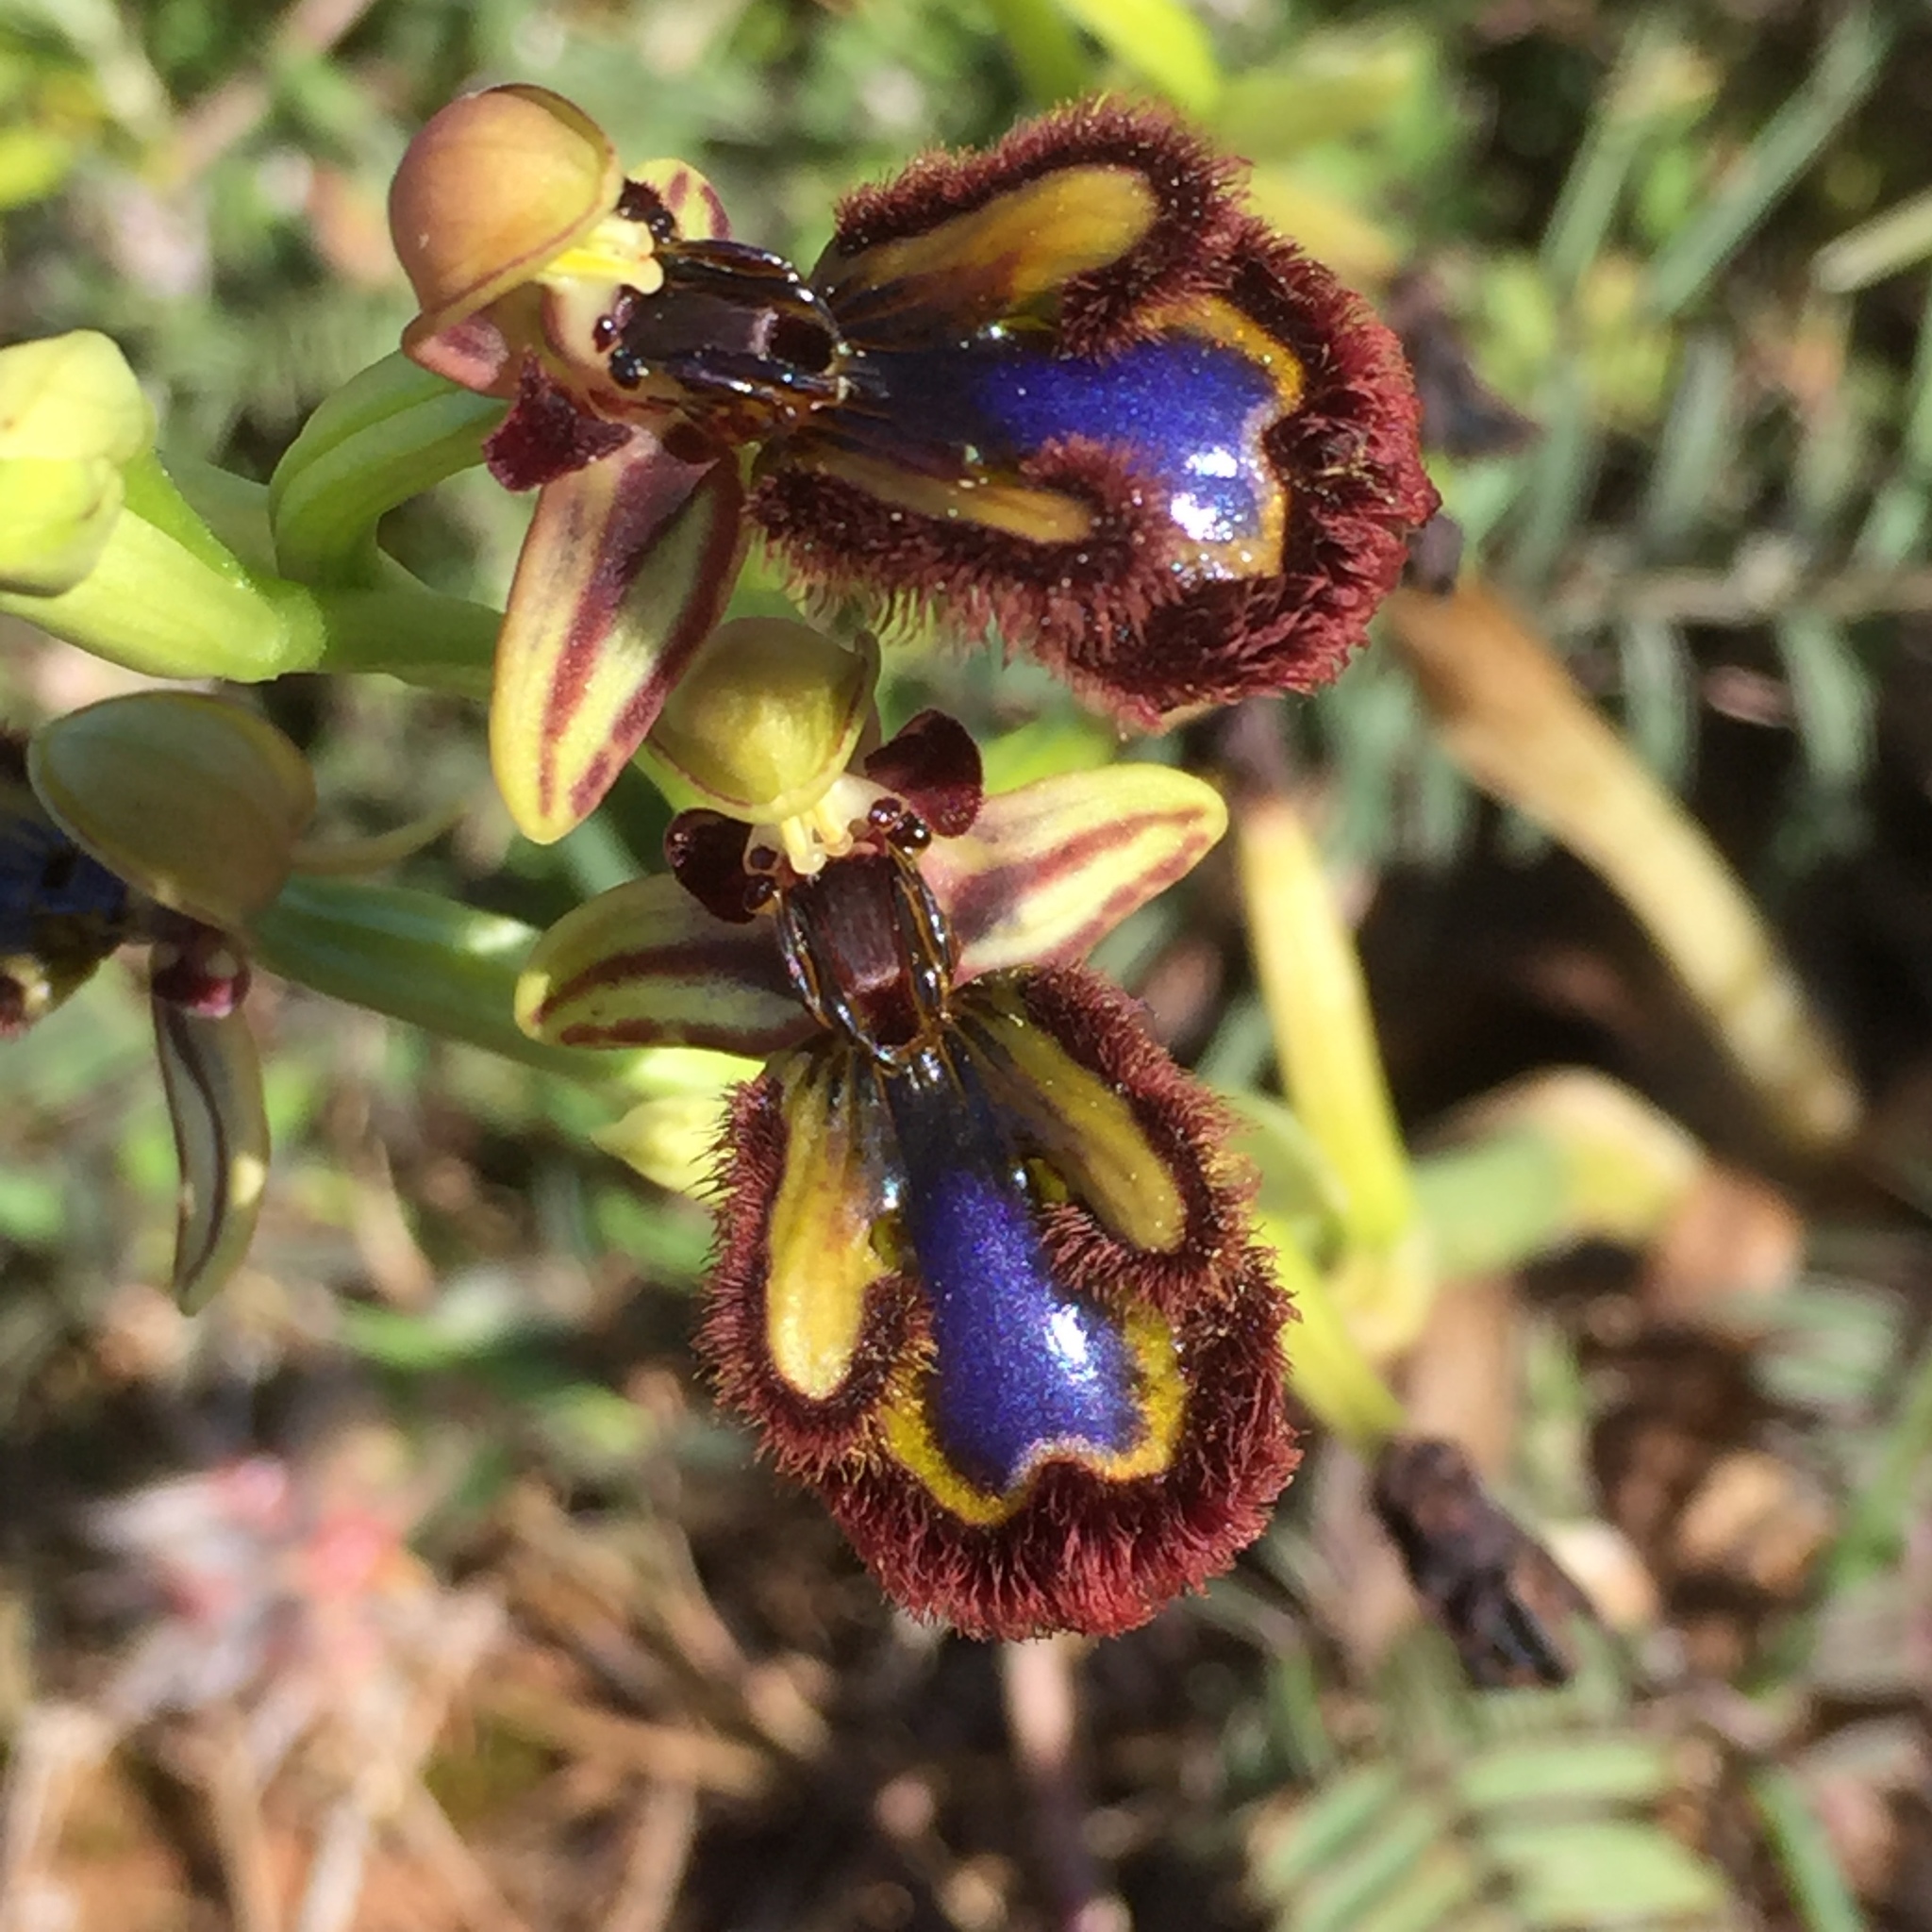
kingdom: Plantae
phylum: Tracheophyta
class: Liliopsida
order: Asparagales
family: Orchidaceae
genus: Ophrys
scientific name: Ophrys speculum
